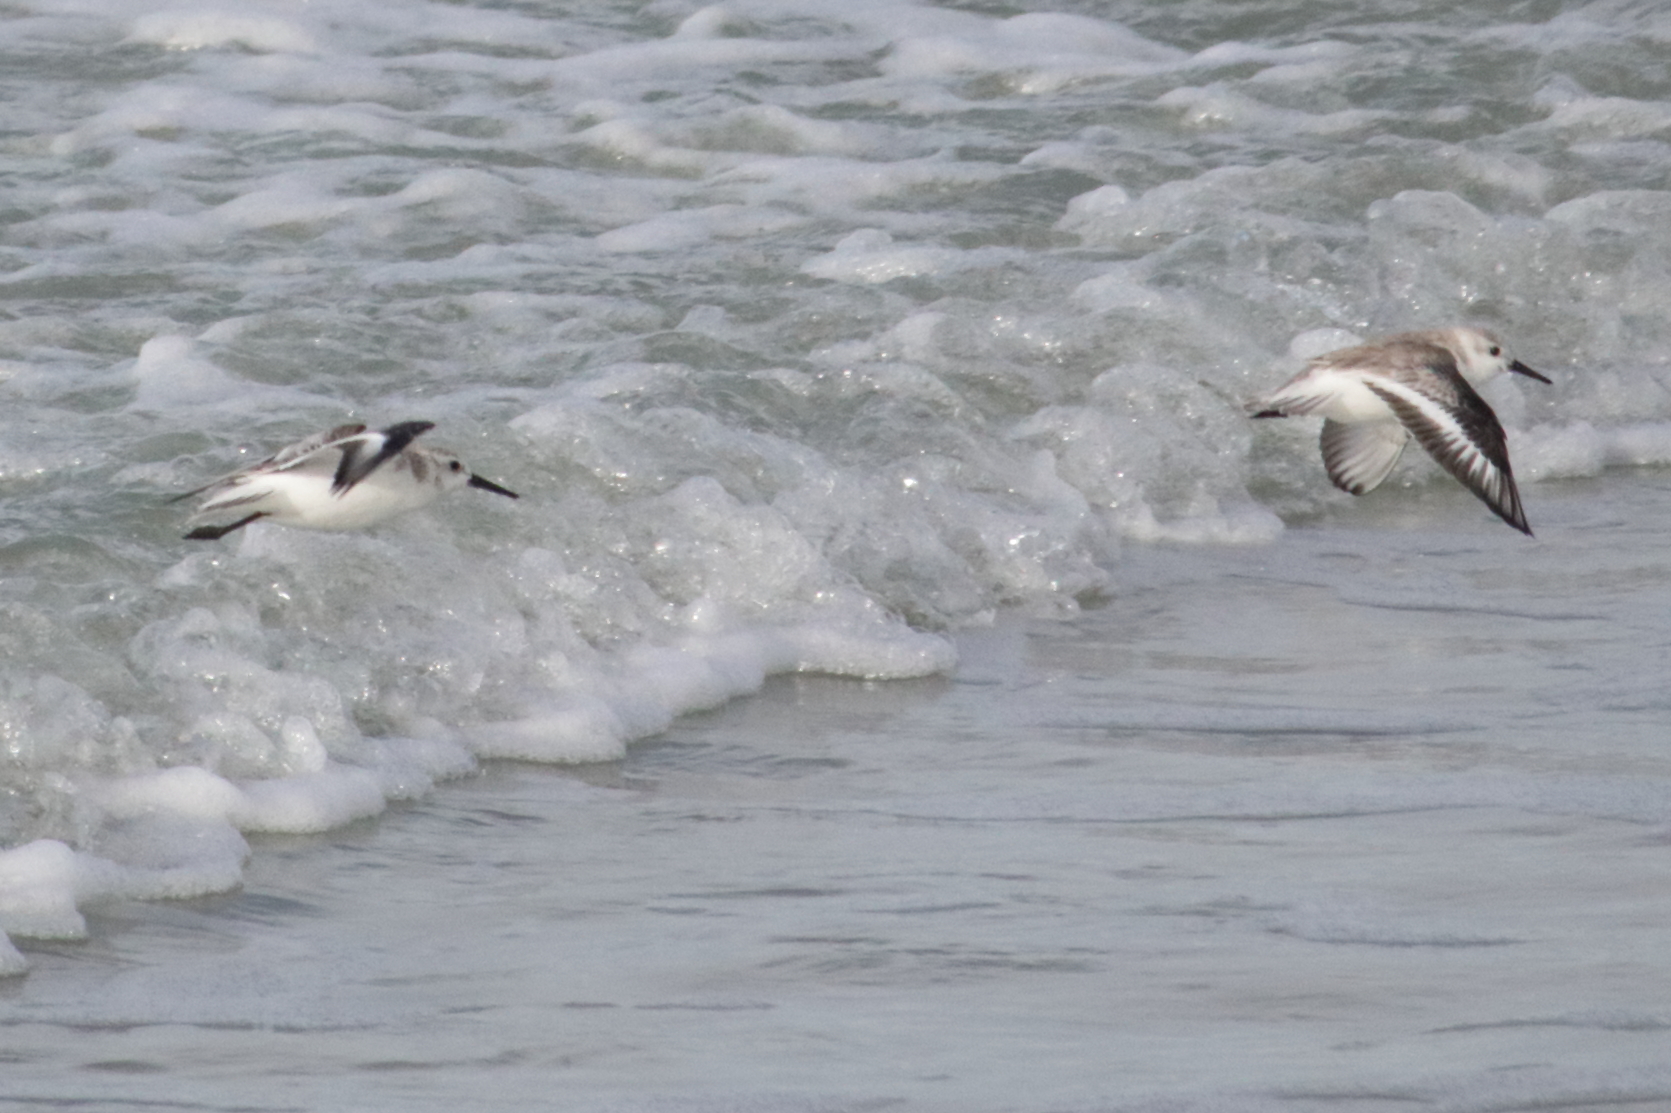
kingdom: Animalia
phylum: Chordata
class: Aves
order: Charadriiformes
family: Scolopacidae
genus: Calidris
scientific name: Calidris alba
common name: Sanderling
